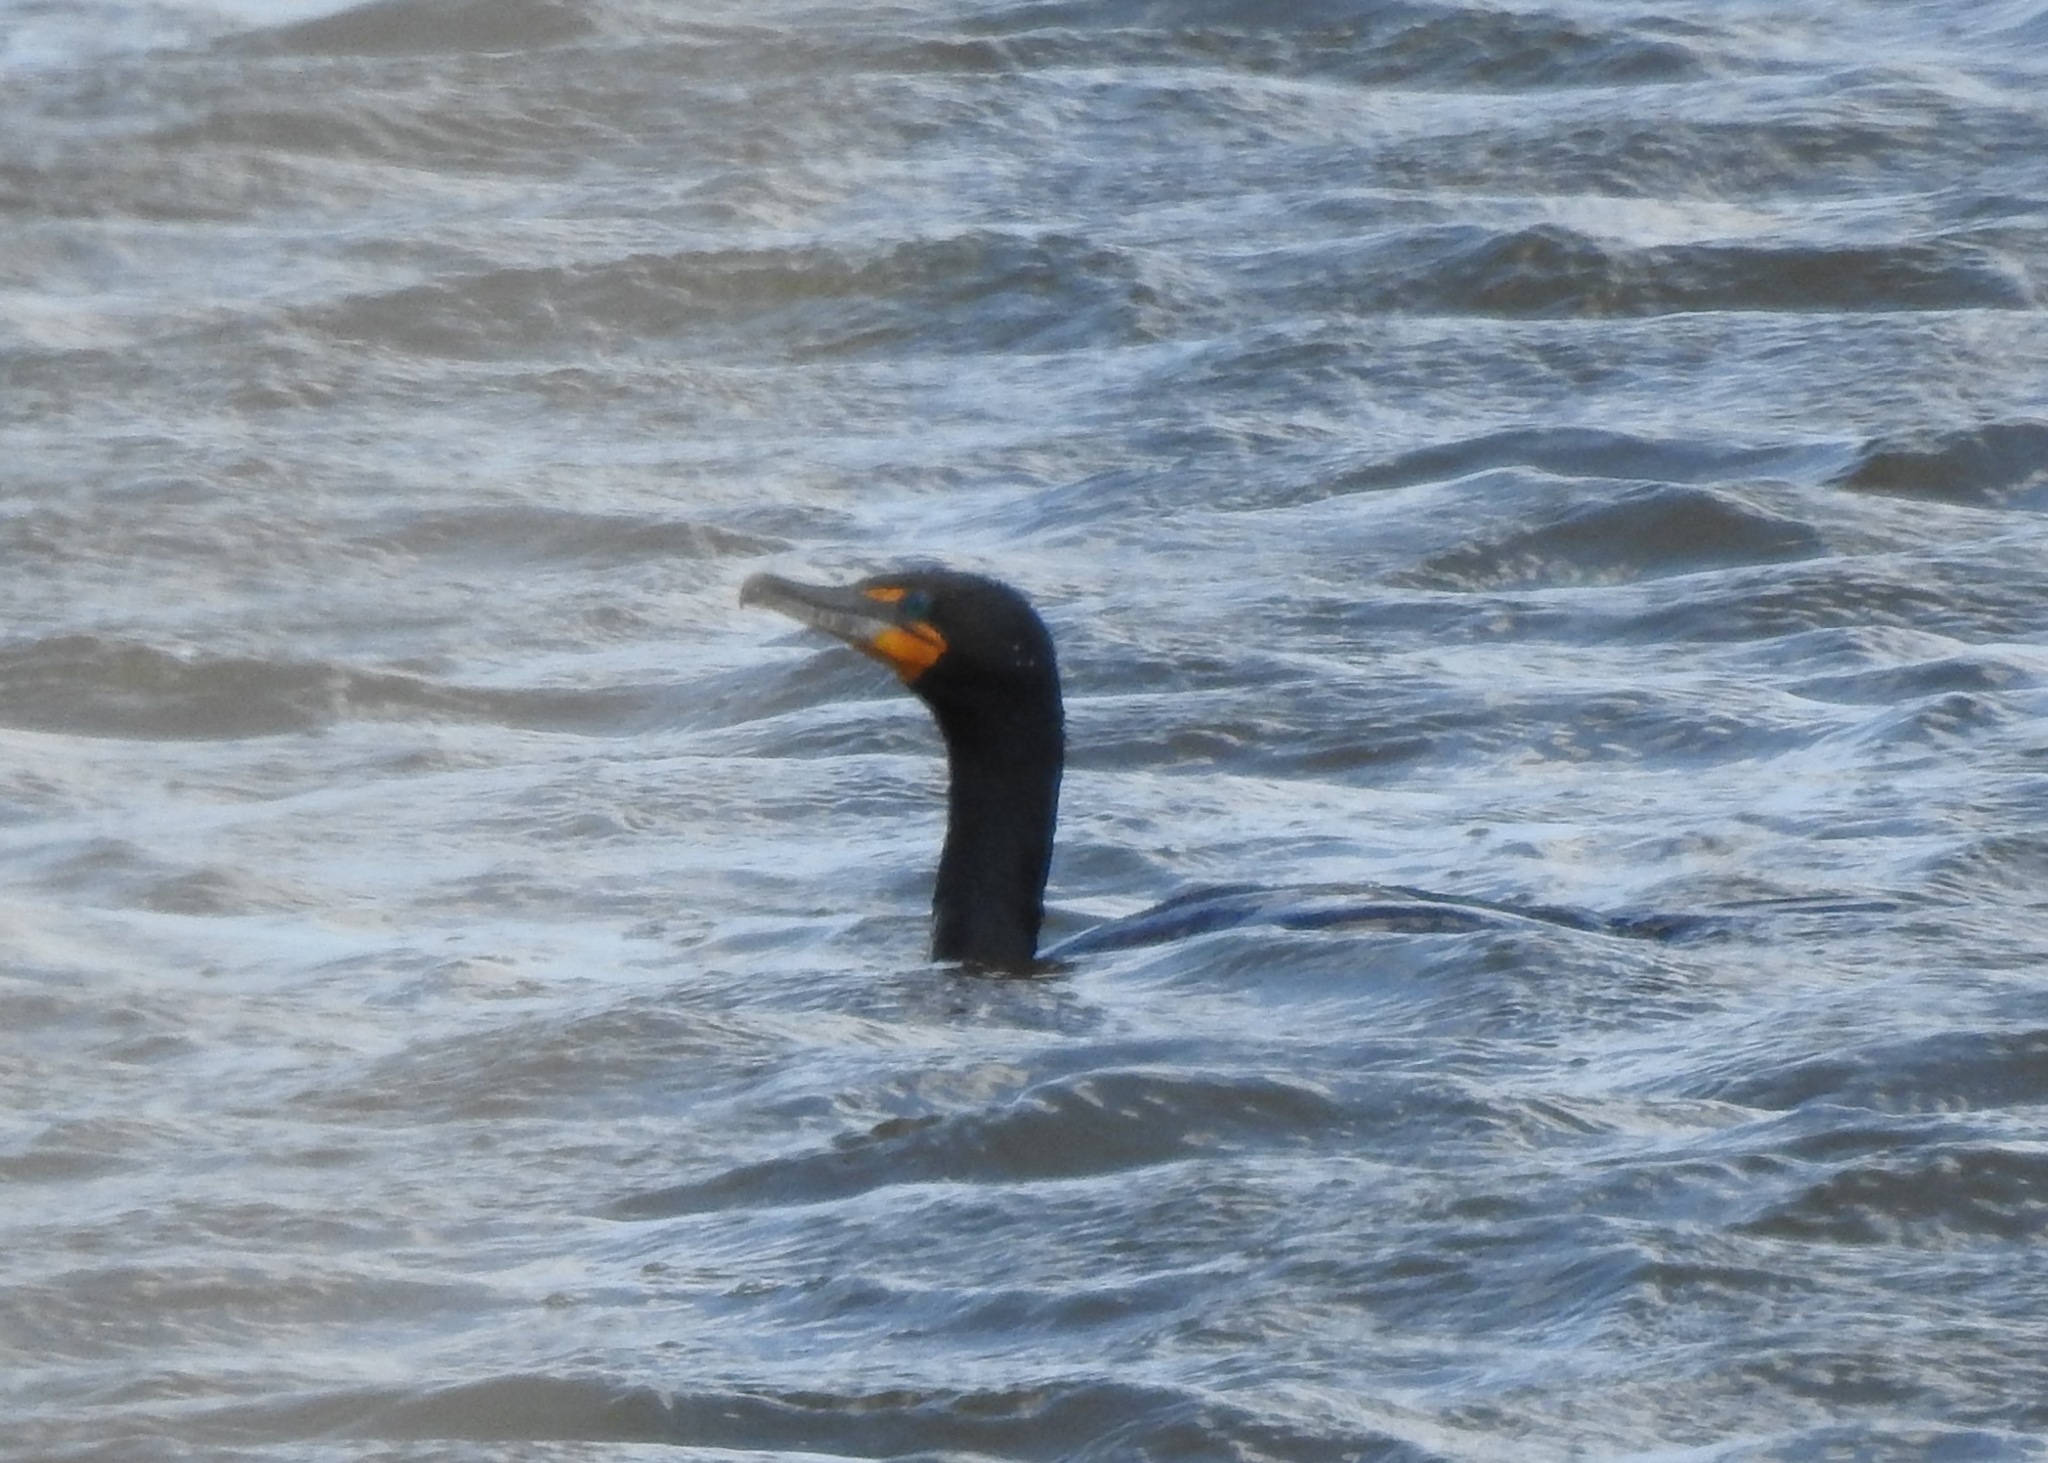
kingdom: Animalia
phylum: Chordata
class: Aves
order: Suliformes
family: Phalacrocoracidae
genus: Phalacrocorax
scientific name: Phalacrocorax auritus
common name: Double-crested cormorant
